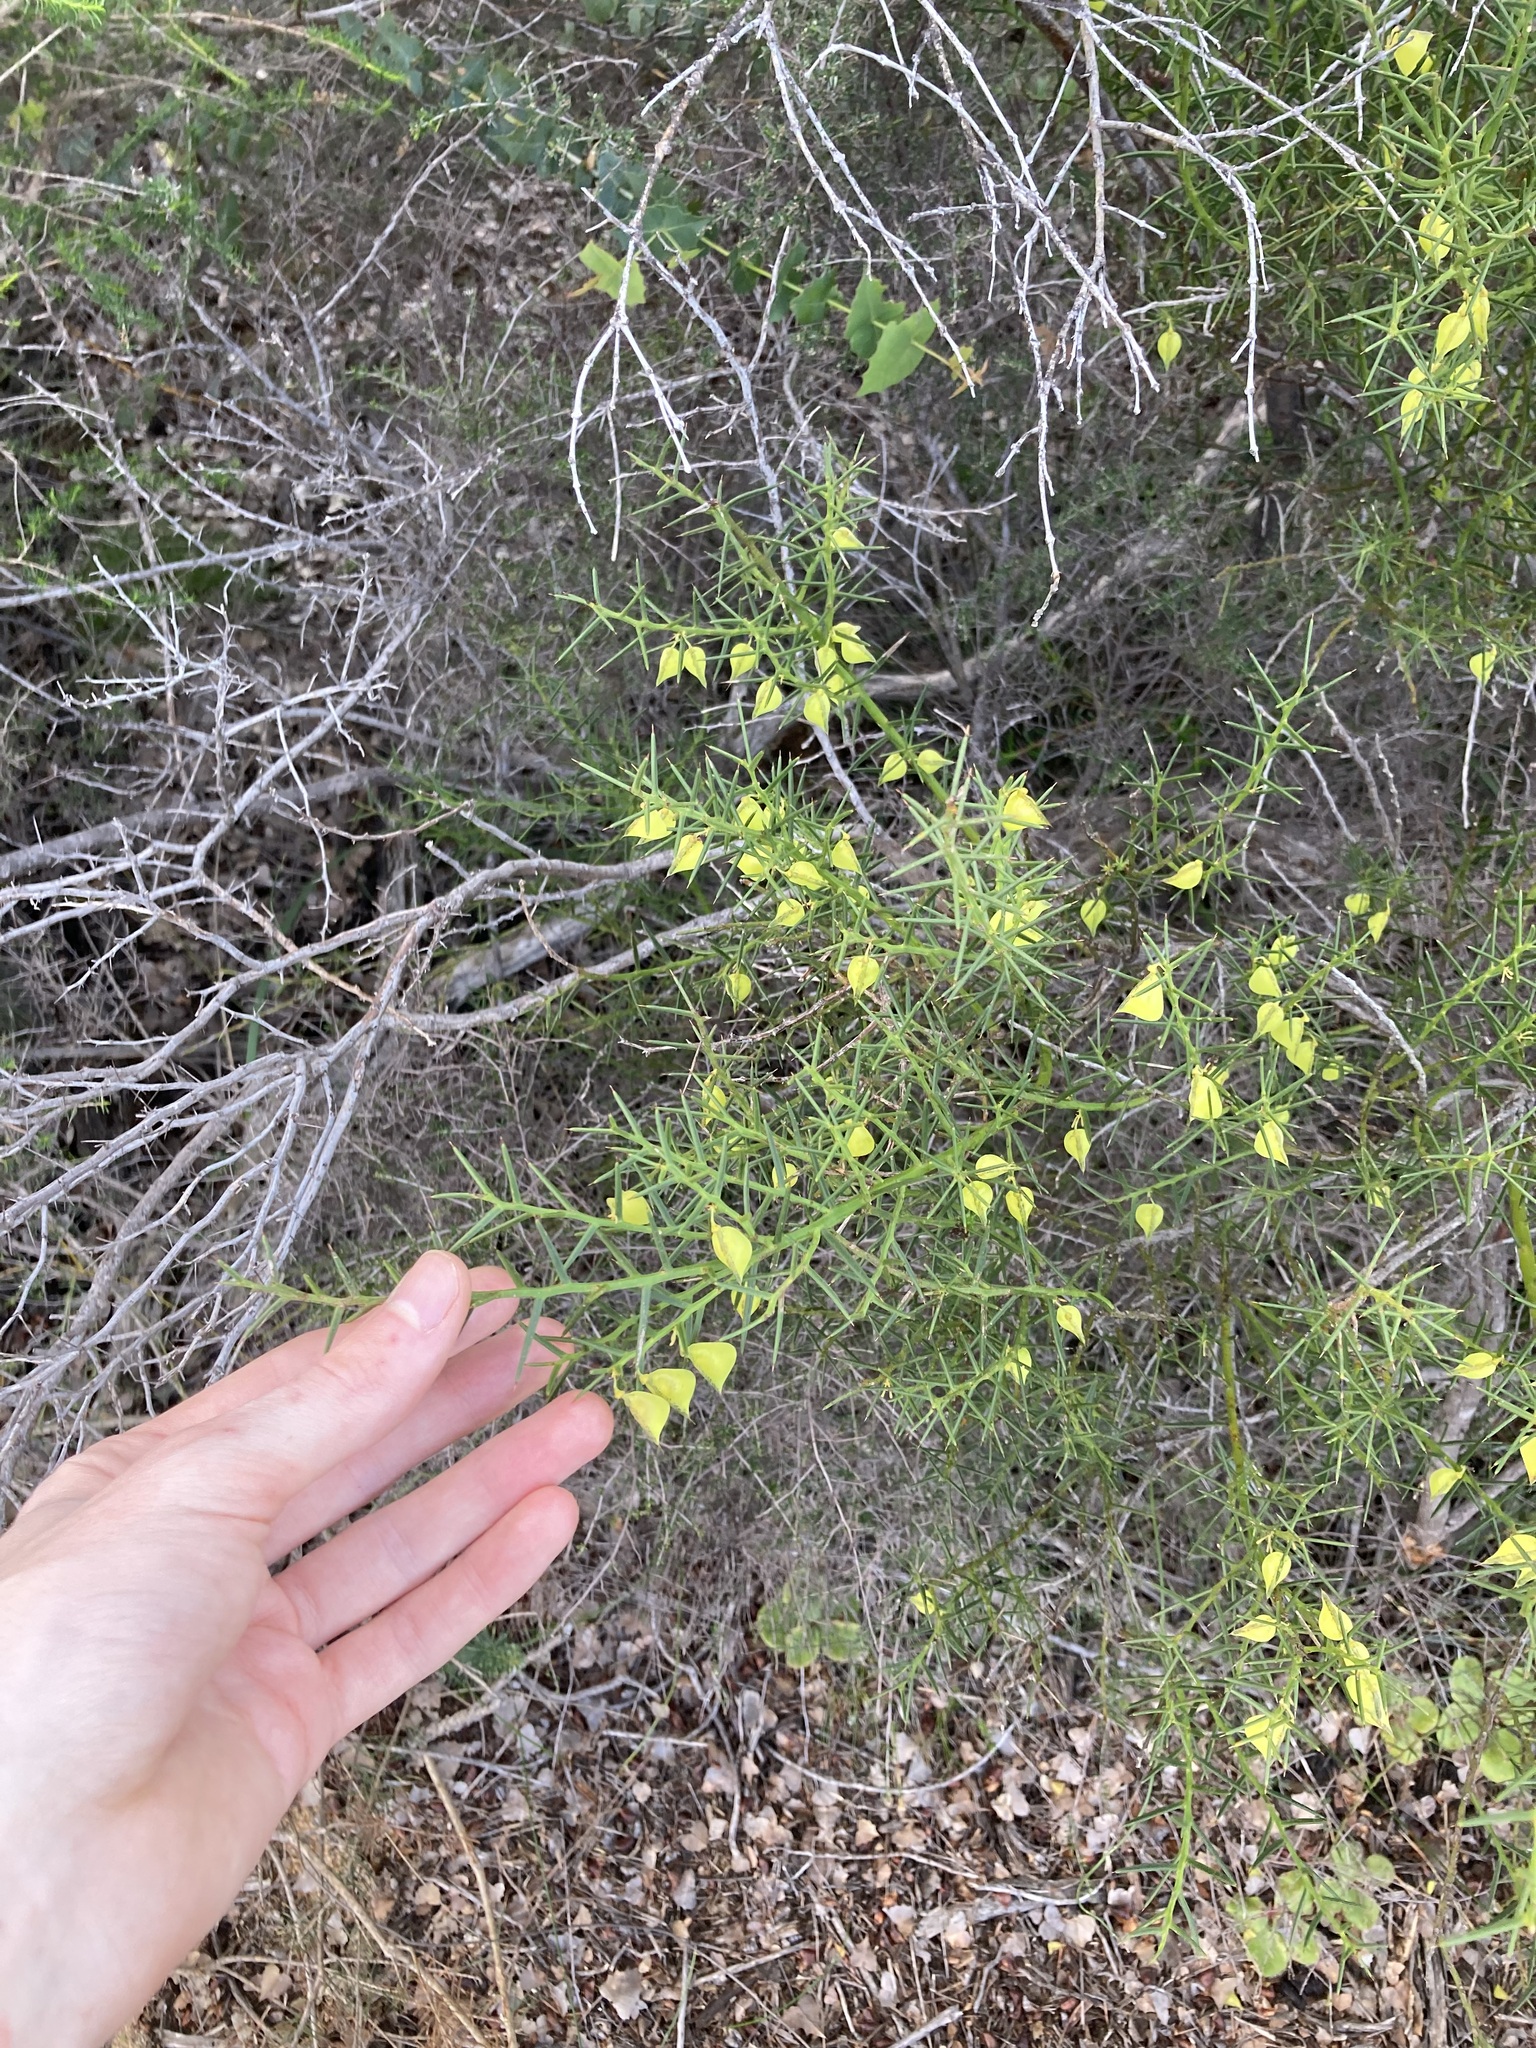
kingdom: Plantae
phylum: Tracheophyta
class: Magnoliopsida
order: Fabales
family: Fabaceae
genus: Daviesia
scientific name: Daviesia angulata
